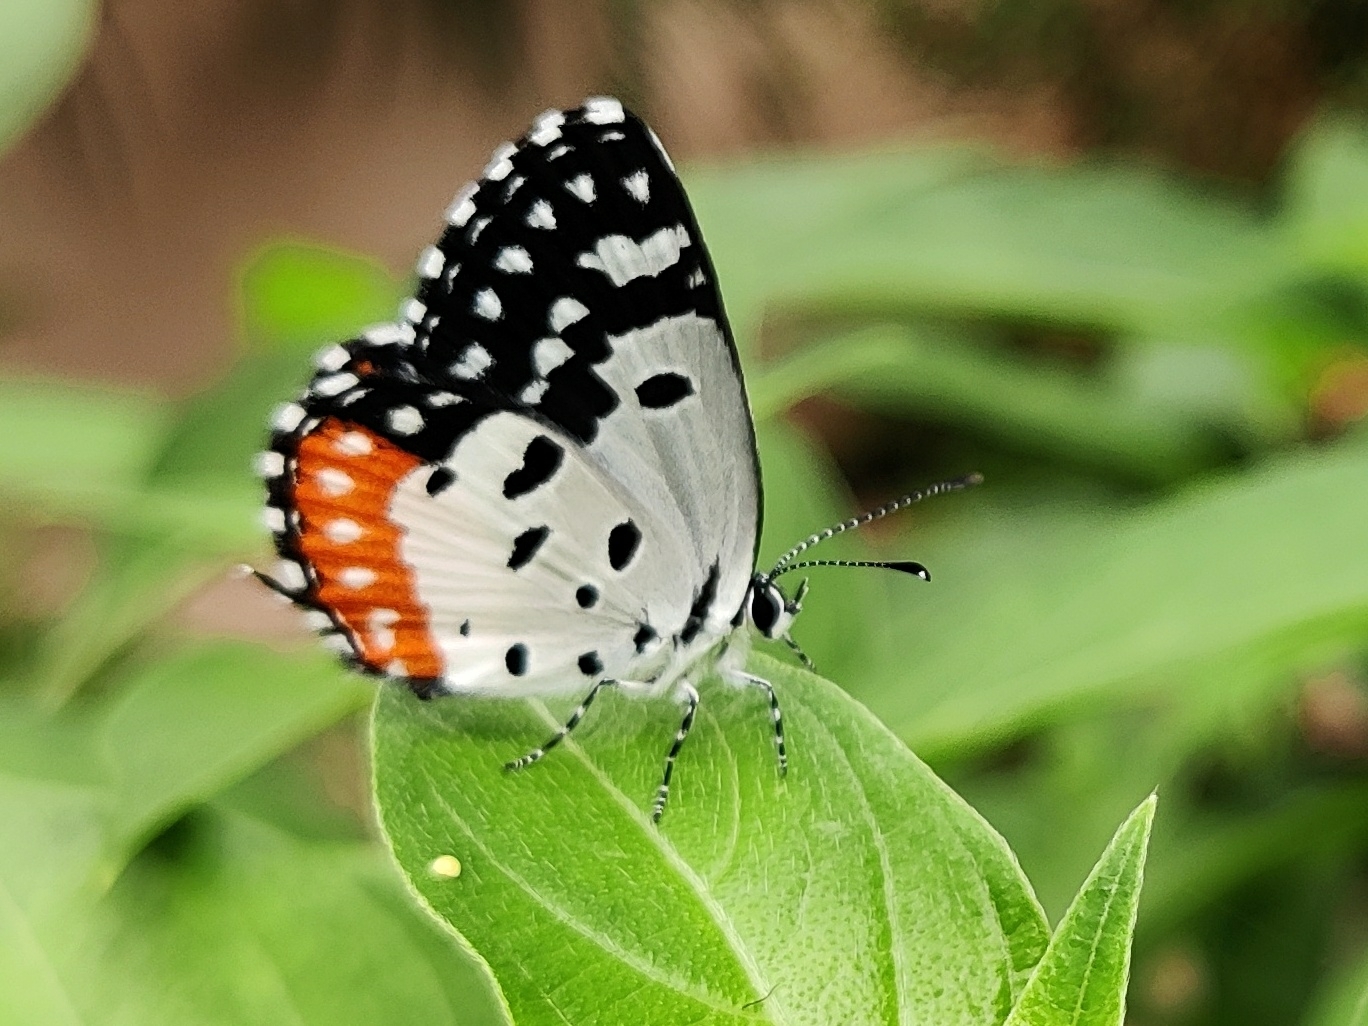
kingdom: Animalia
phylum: Arthropoda
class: Insecta
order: Lepidoptera
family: Lycaenidae
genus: Talicada
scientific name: Talicada nyseus
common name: Red pierrot
